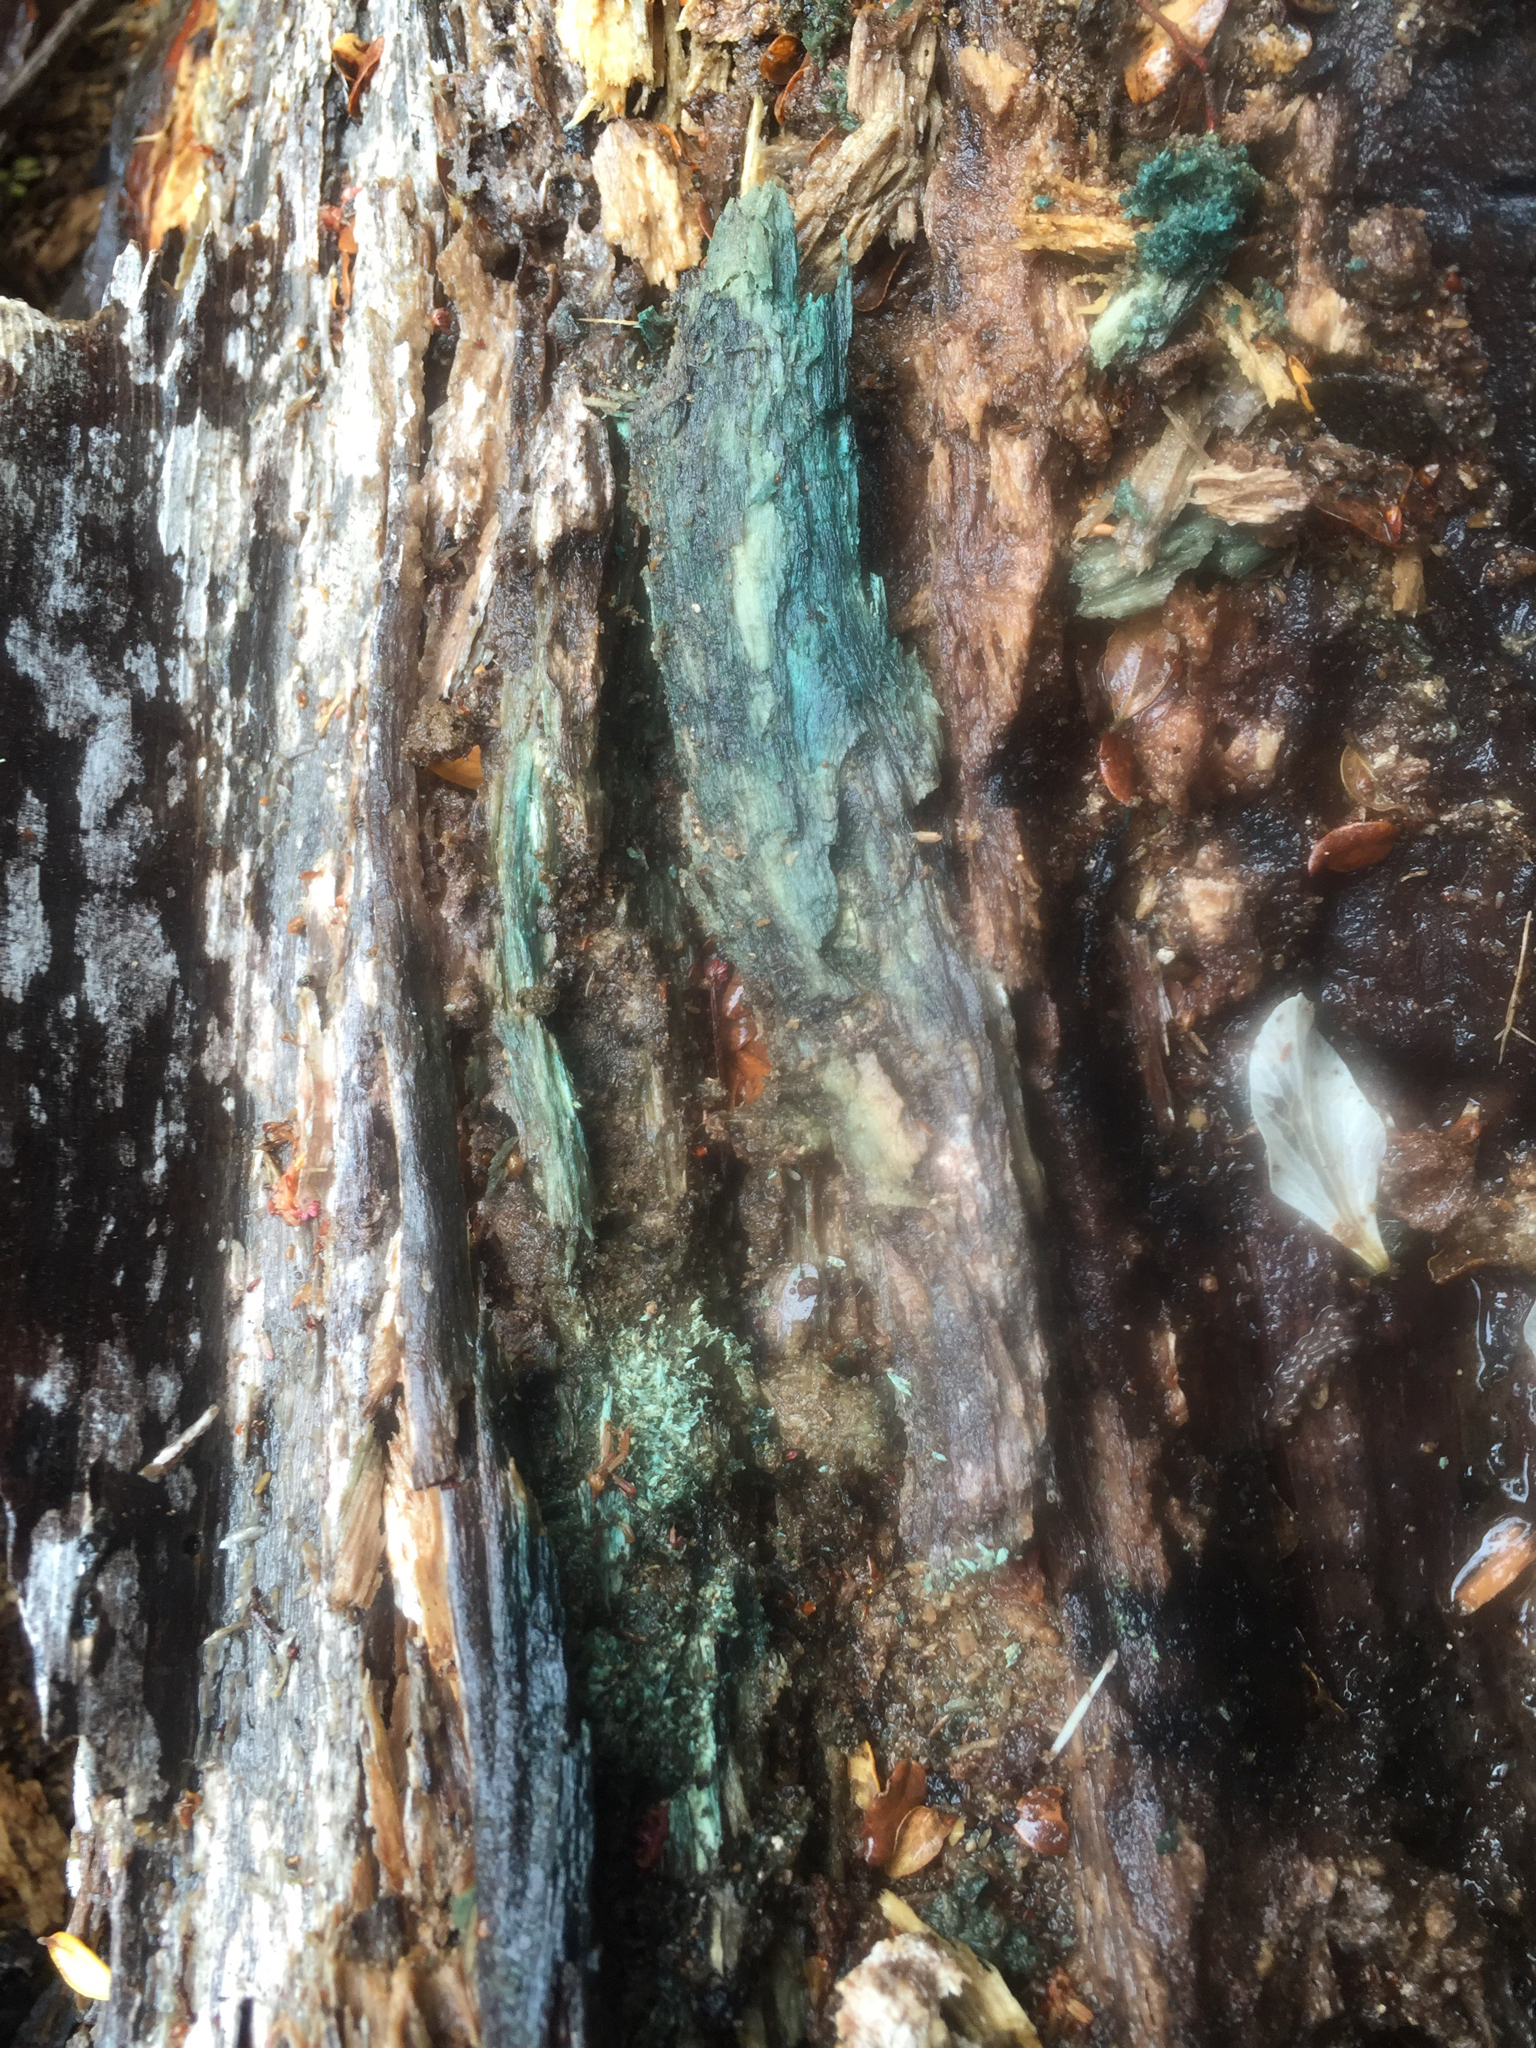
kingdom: Fungi
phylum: Ascomycota
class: Leotiomycetes
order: Helotiales
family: Chlorociboriaceae
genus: Chlorociboria
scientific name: Chlorociboria
